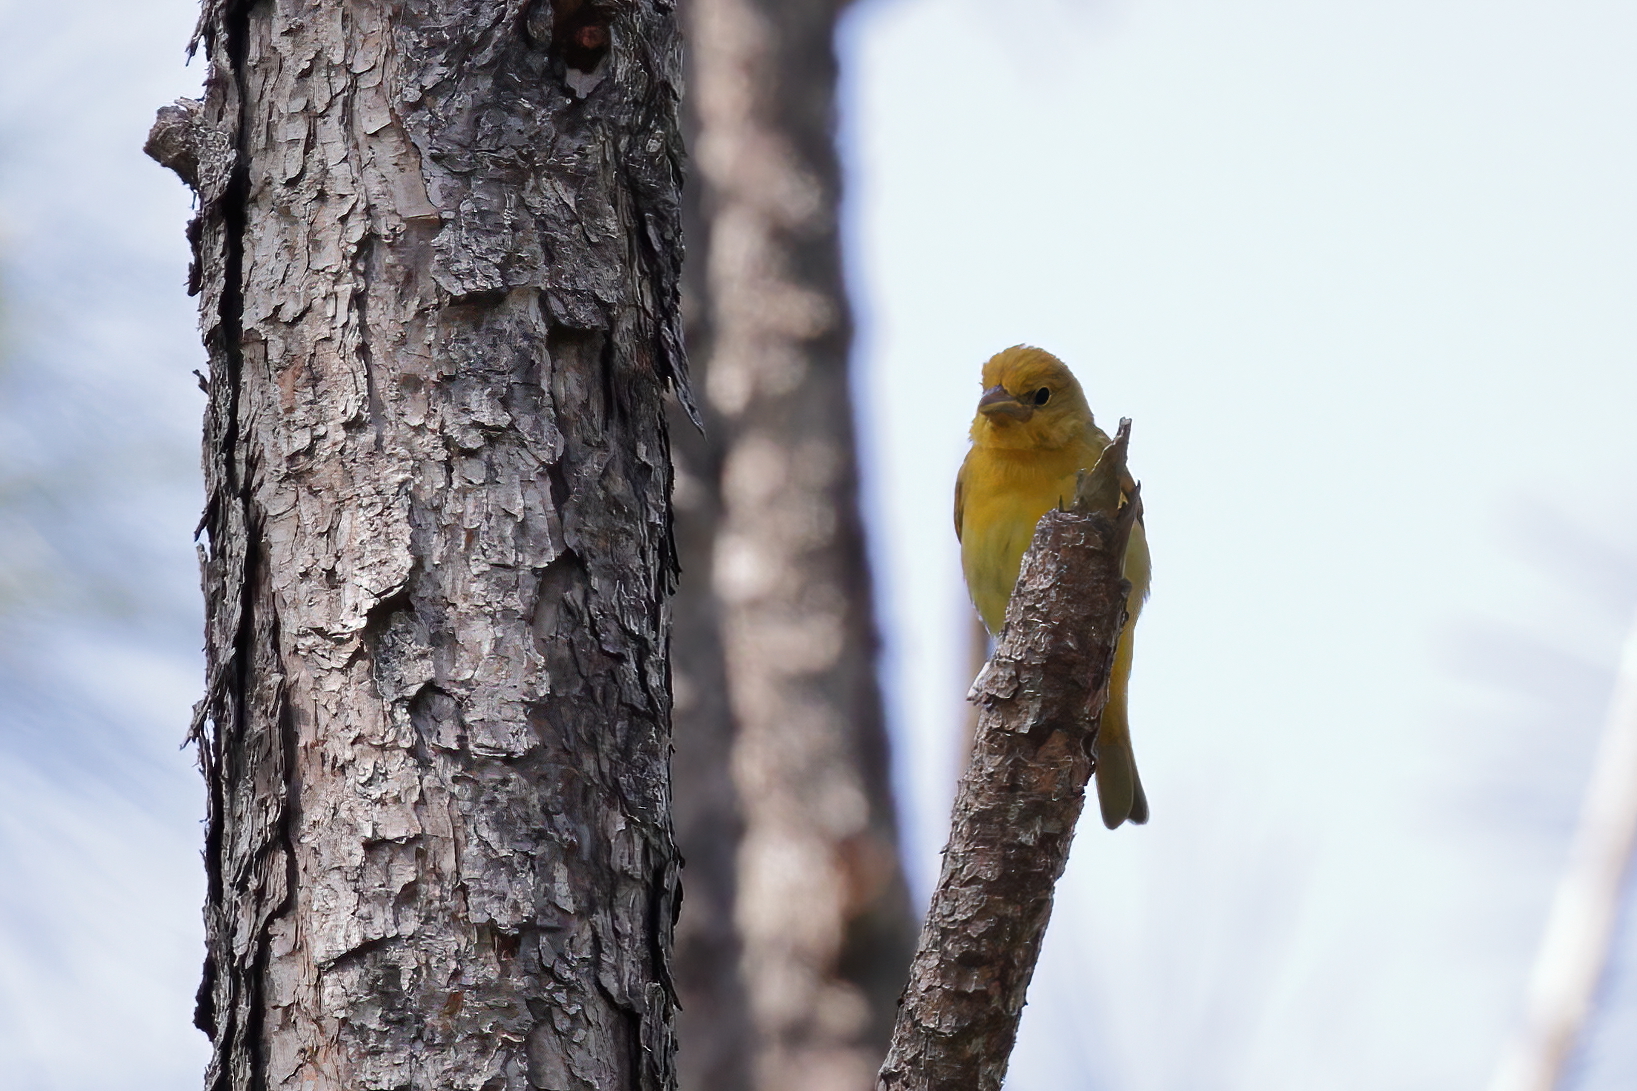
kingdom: Animalia
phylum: Chordata
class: Aves
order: Passeriformes
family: Cardinalidae
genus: Piranga
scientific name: Piranga rubra
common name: Summer tanager
